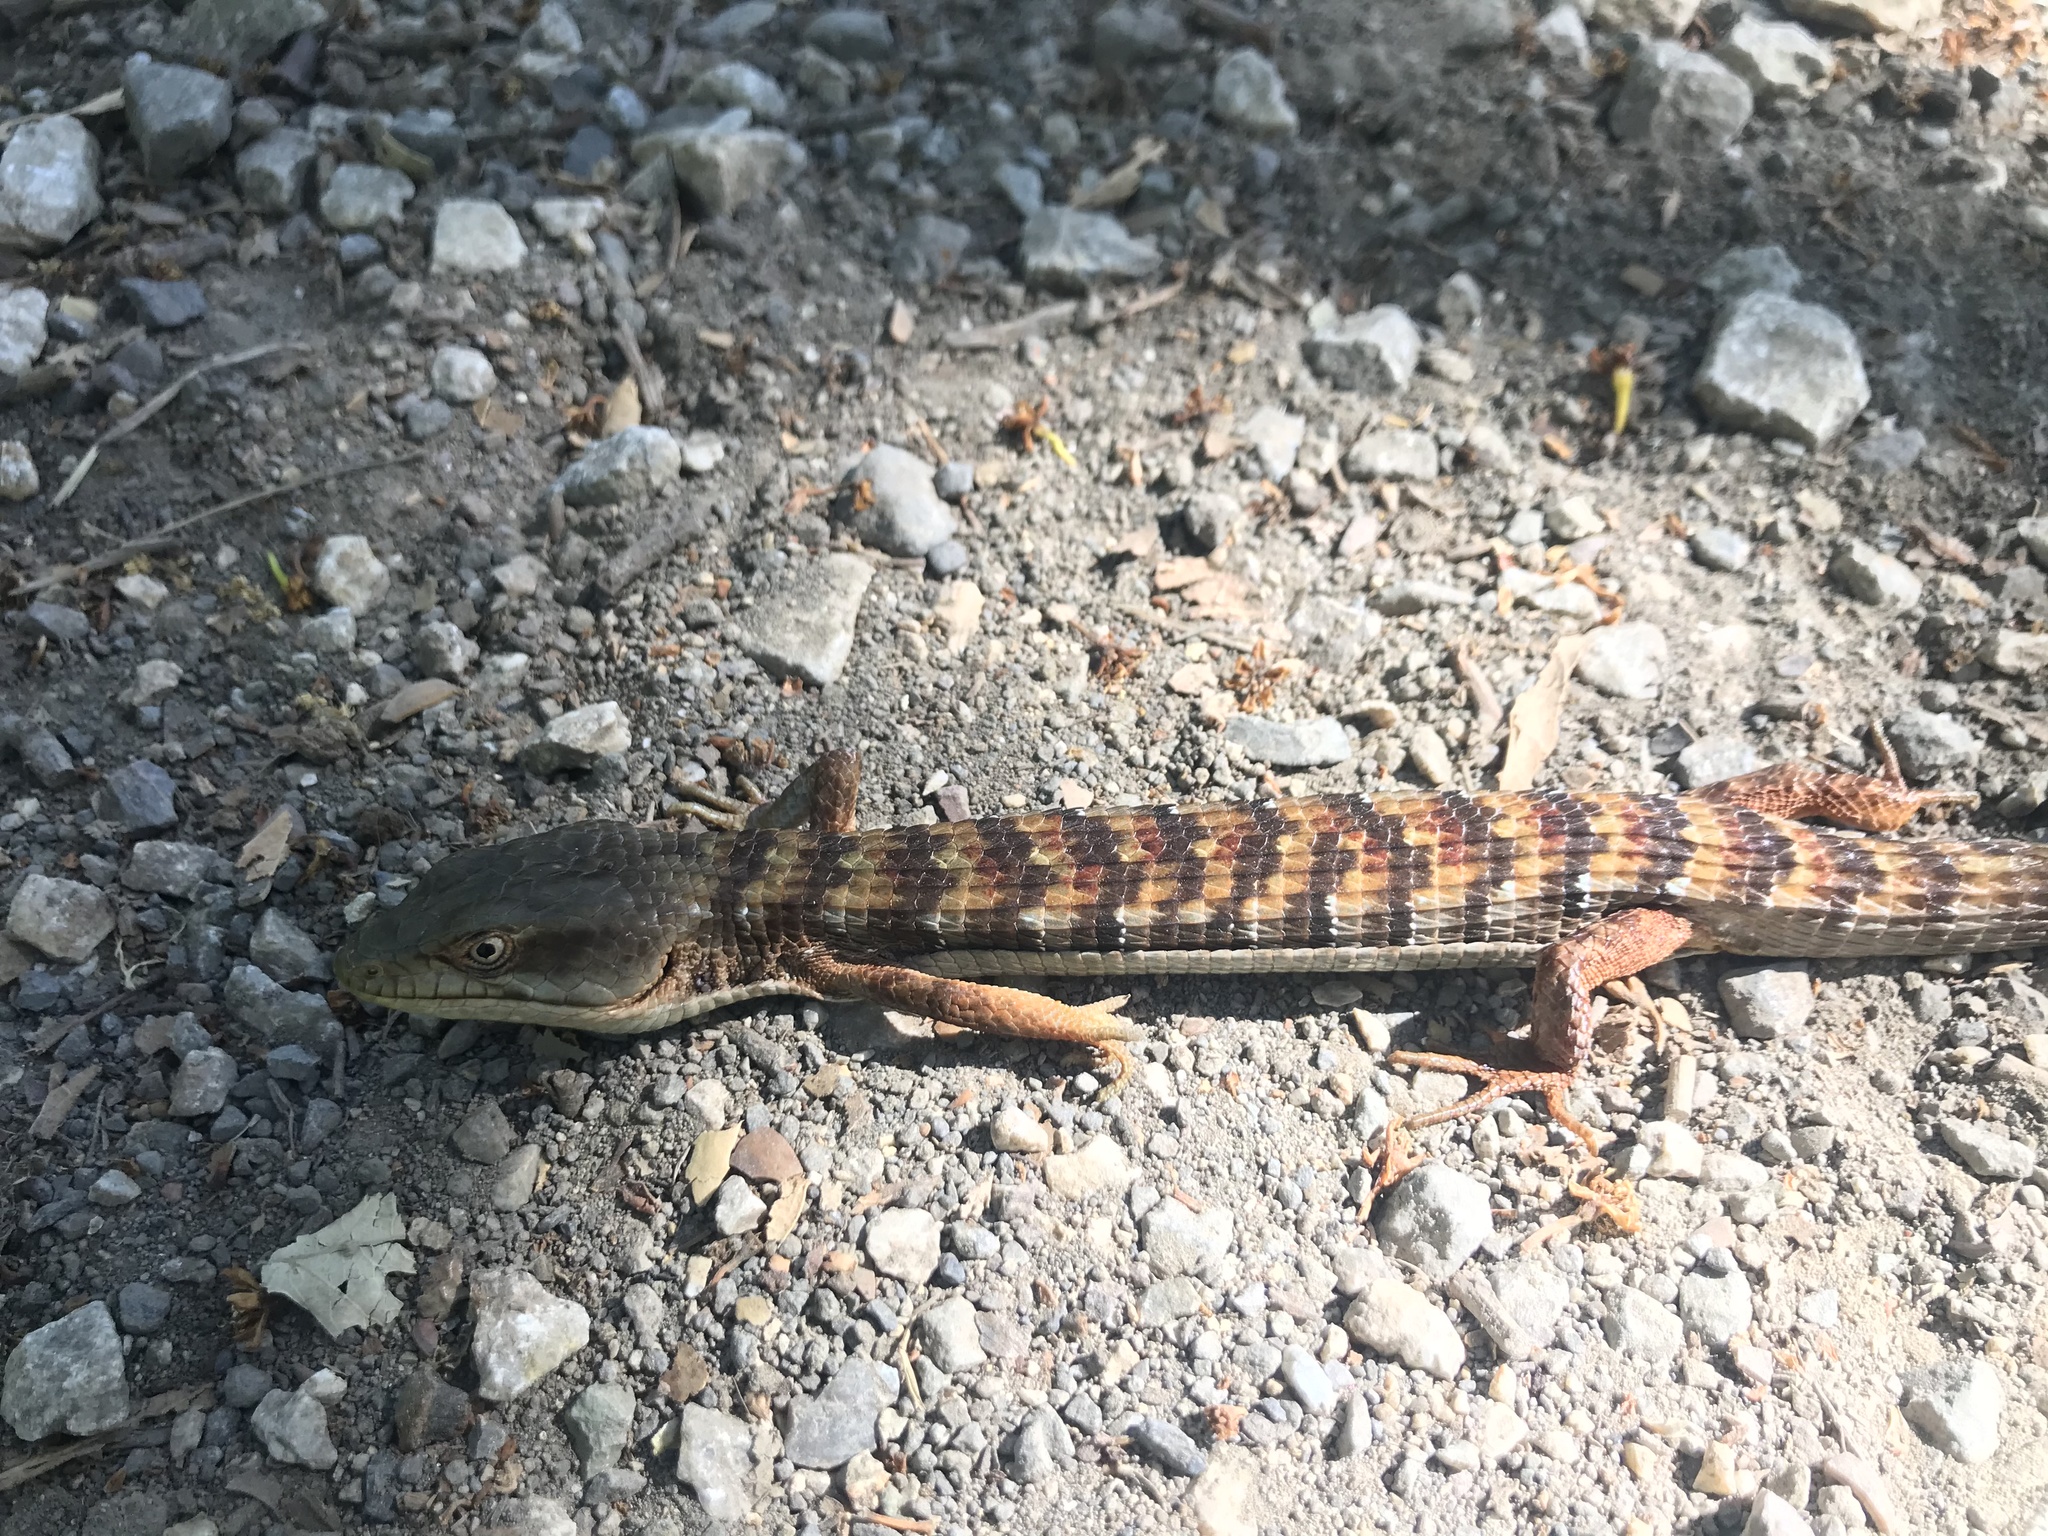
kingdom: Animalia
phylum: Chordata
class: Squamata
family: Anguidae
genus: Elgaria
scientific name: Elgaria multicarinata
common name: Southern alligator lizard
